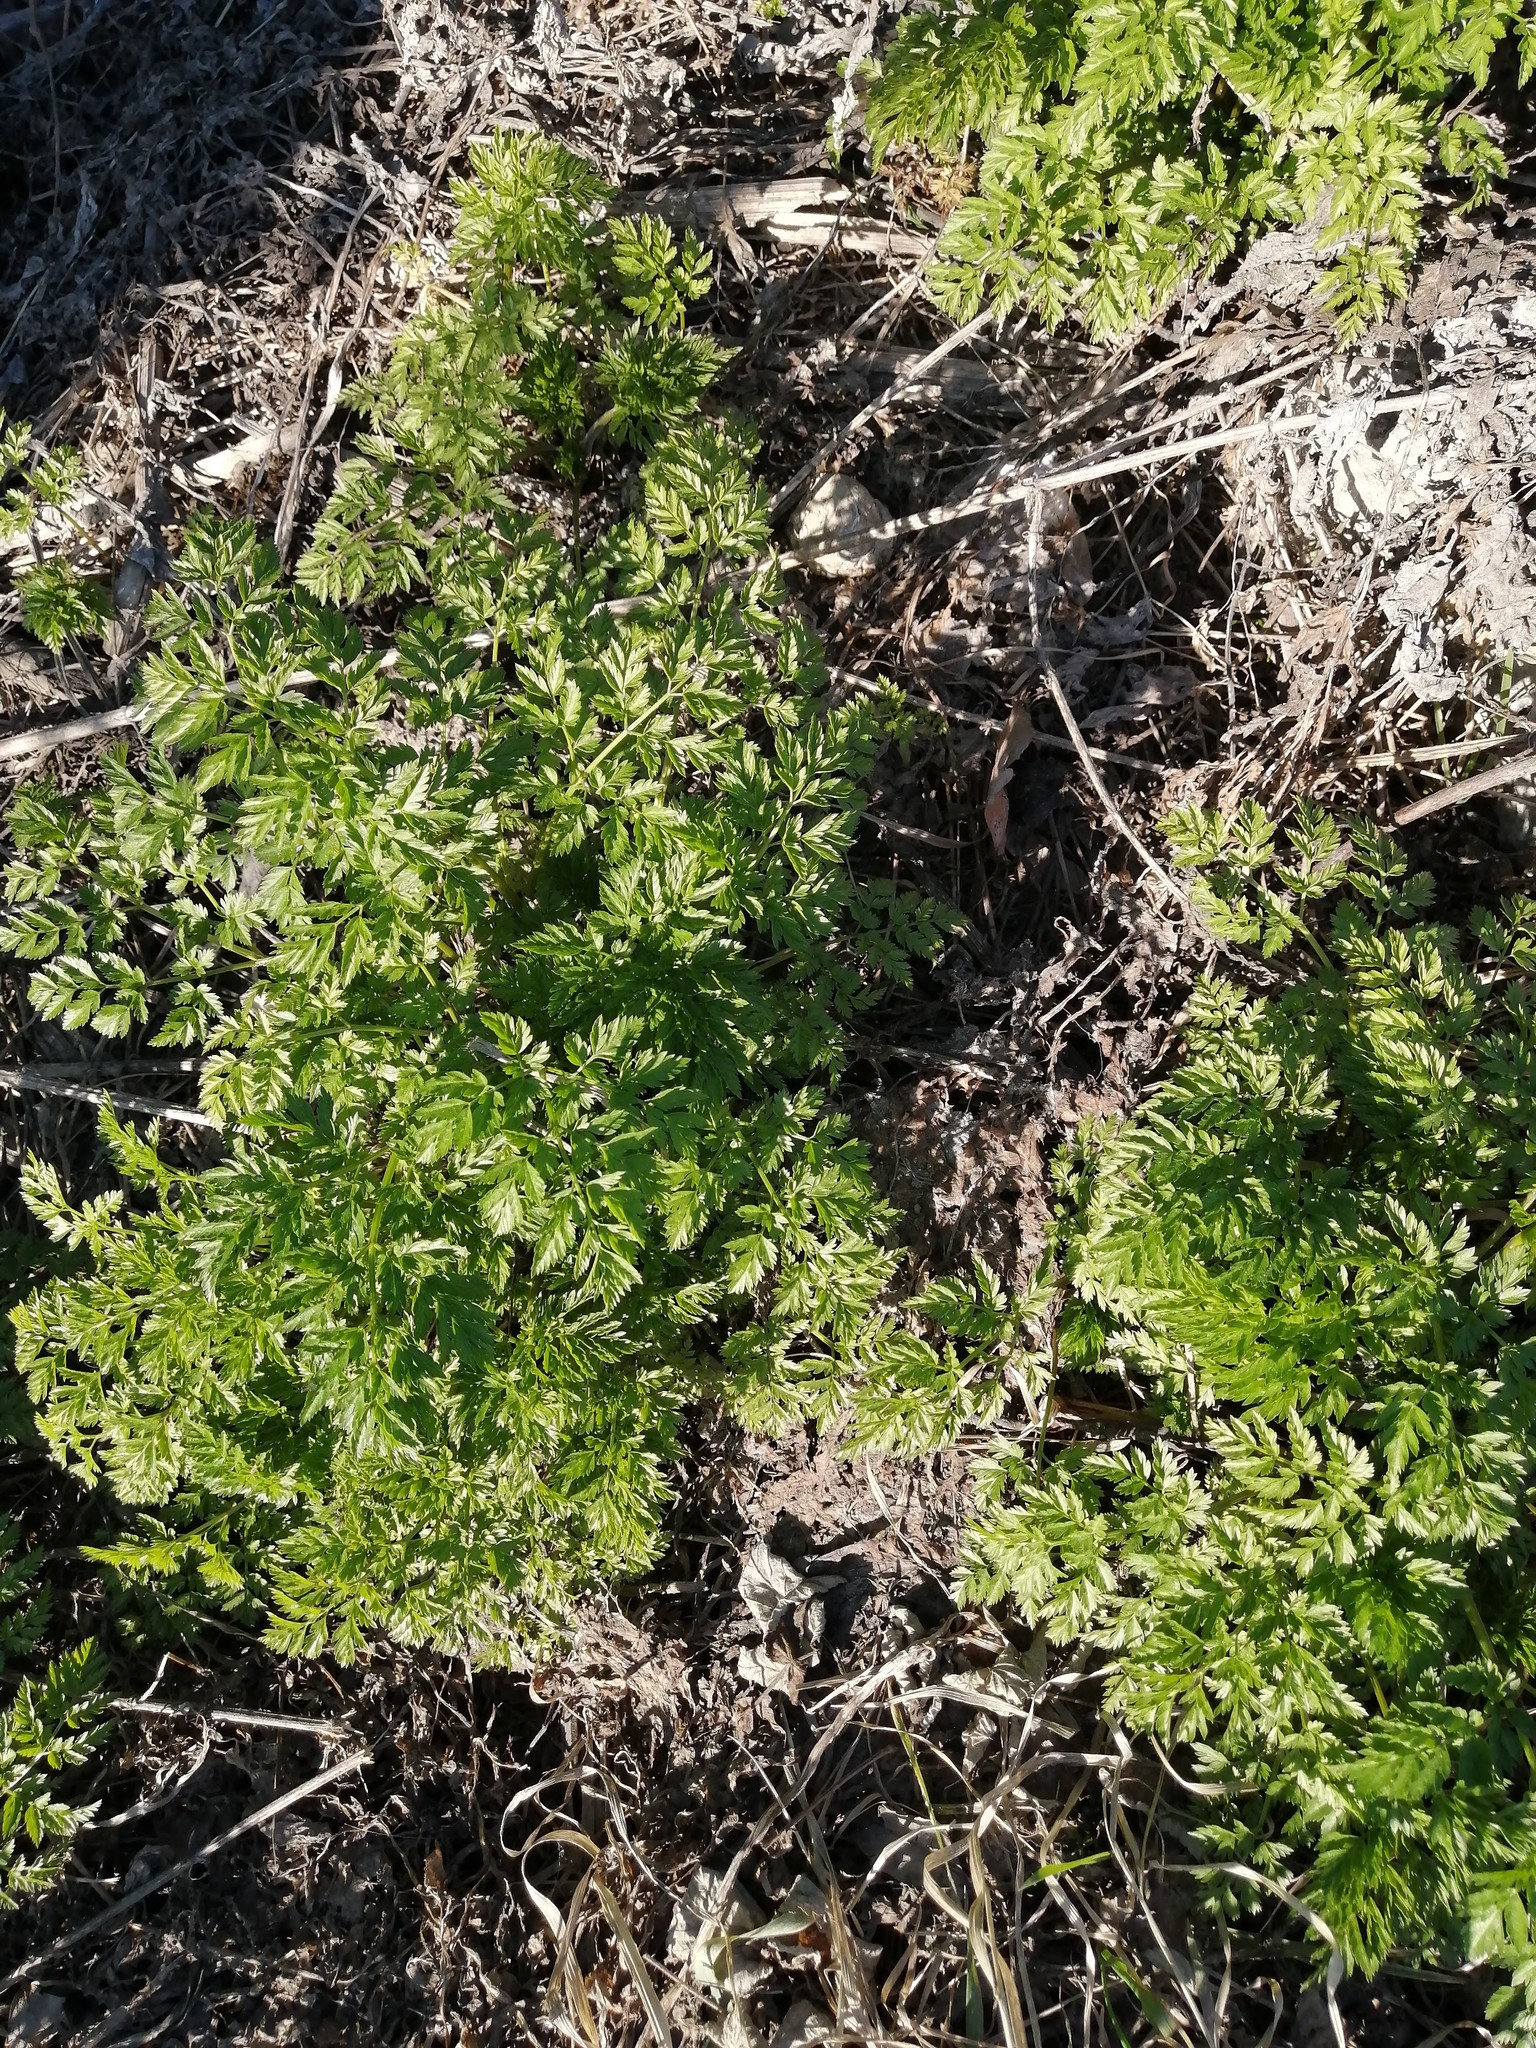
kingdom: Plantae
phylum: Tracheophyta
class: Magnoliopsida
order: Apiales
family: Apiaceae
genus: Anthriscus
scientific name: Anthriscus sylvestris
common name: Cow parsley
